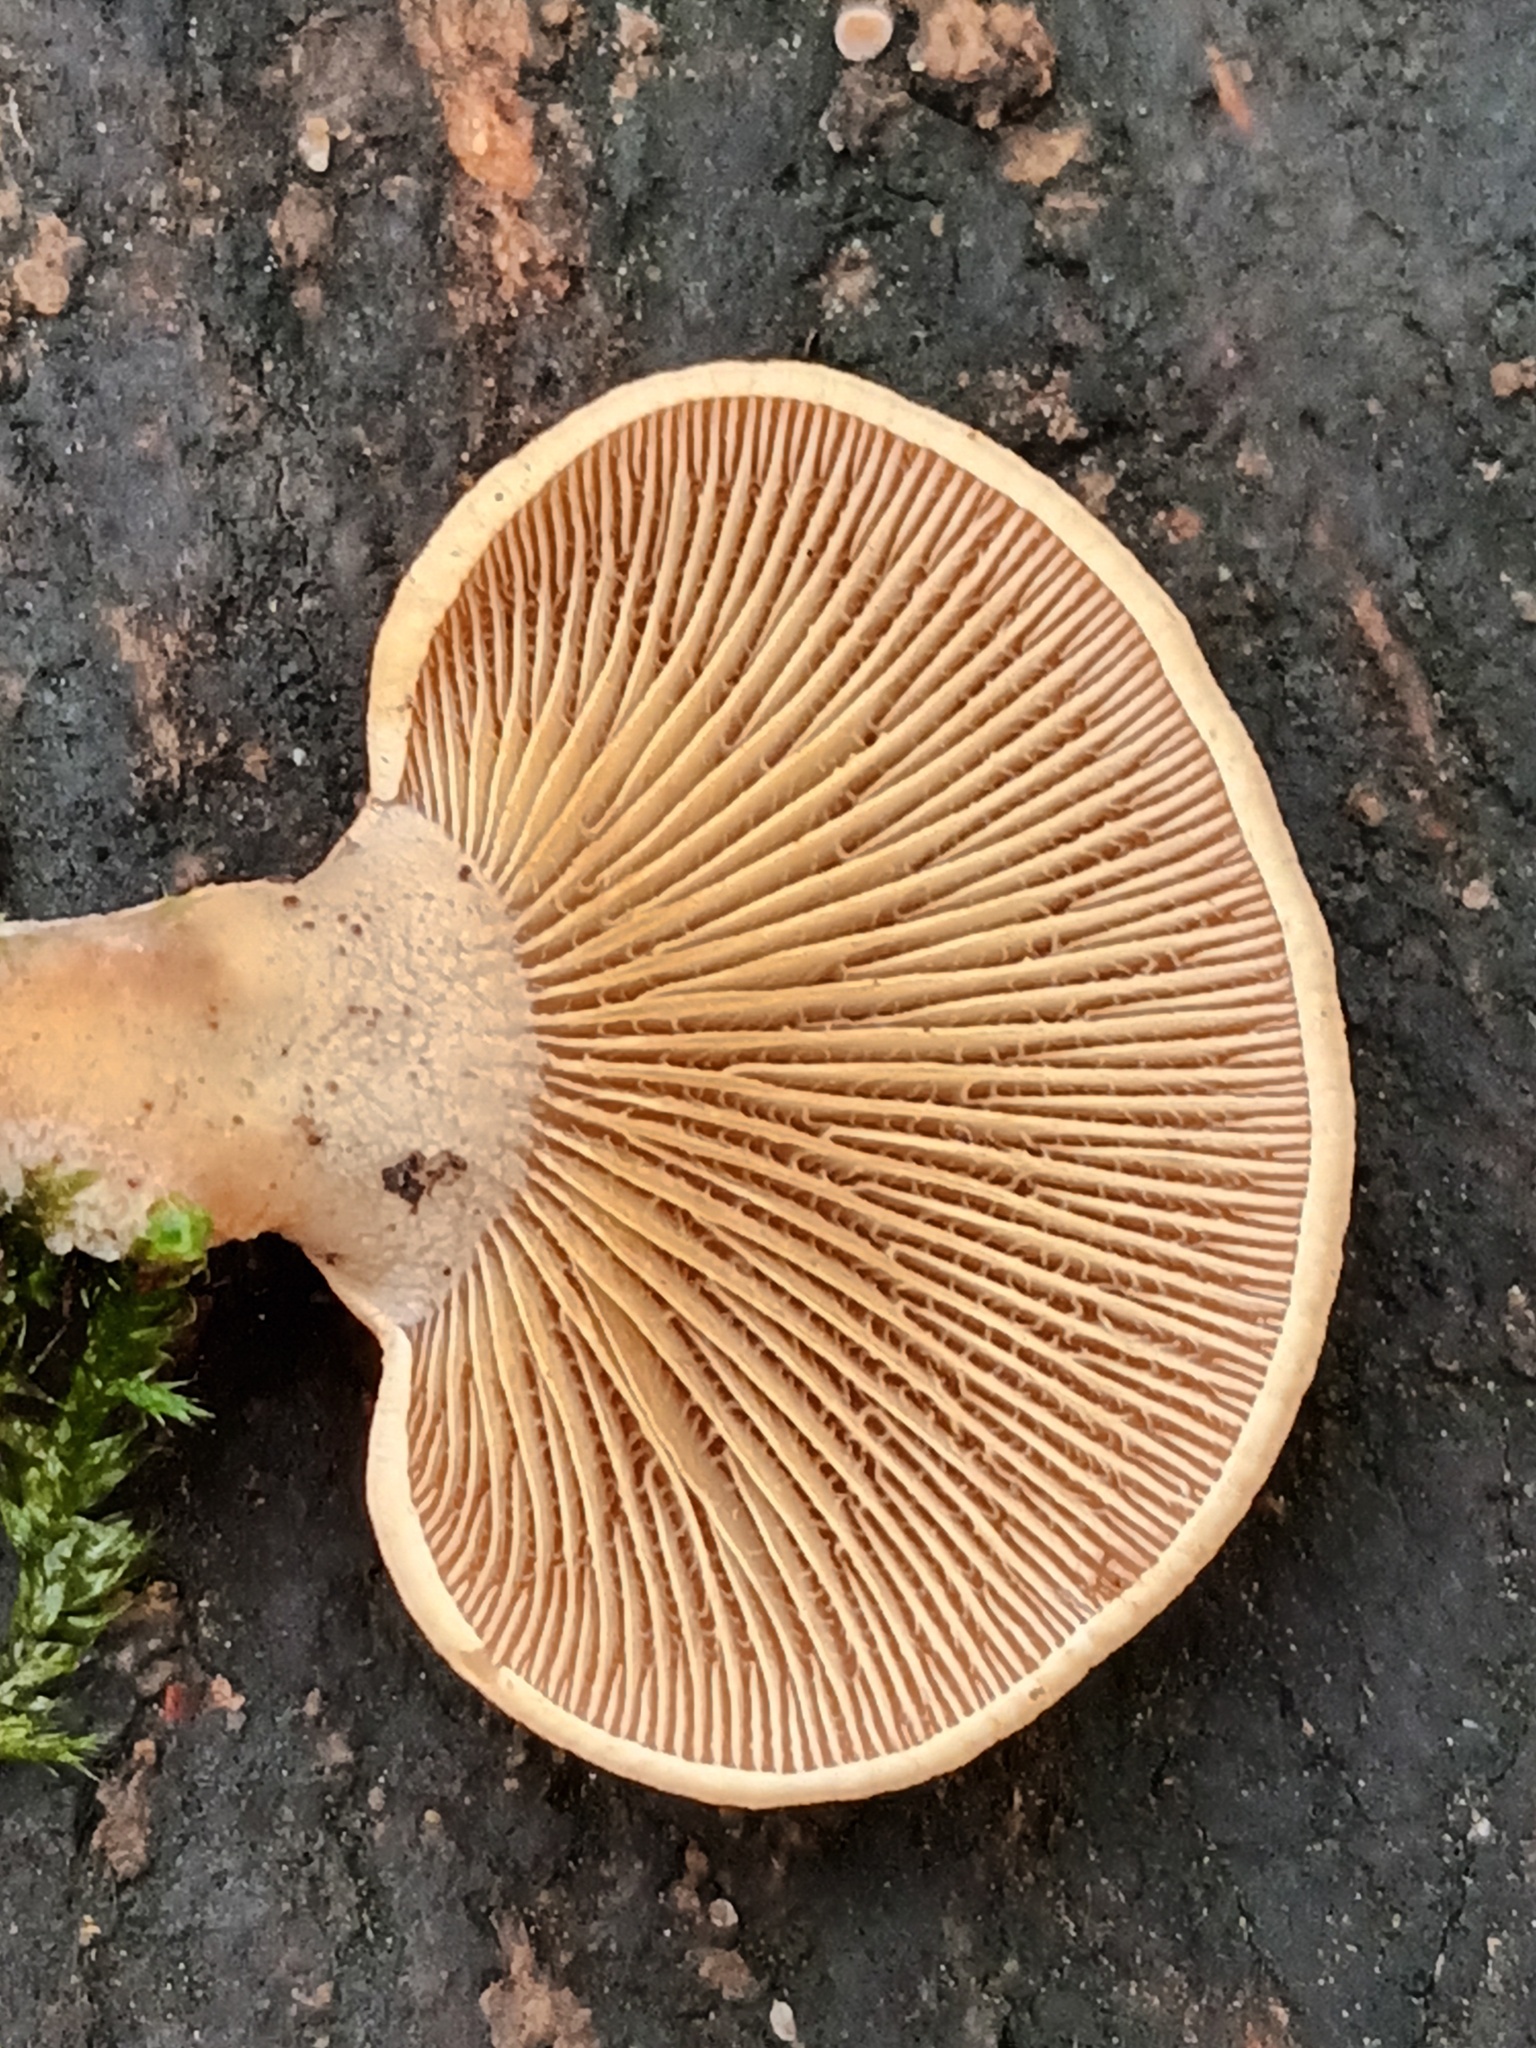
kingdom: Fungi
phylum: Basidiomycota
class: Agaricomycetes
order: Agaricales
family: Mycenaceae
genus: Panellus
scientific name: Panellus stipticus
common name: Bitter oysterling
